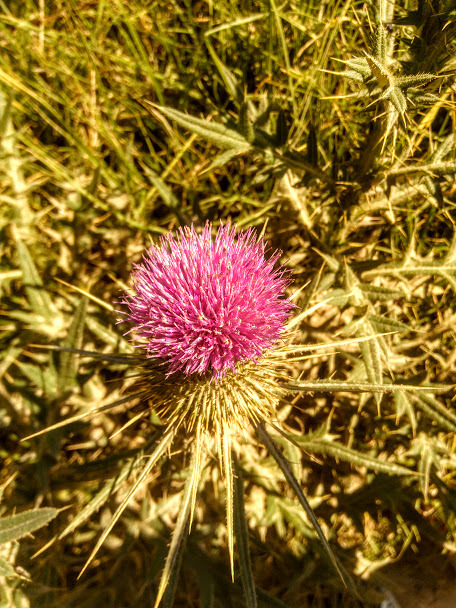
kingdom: Plantae
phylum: Tracheophyta
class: Magnoliopsida
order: Asterales
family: Asteraceae
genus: Cirsium
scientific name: Cirsium vulgare
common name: Bull thistle
